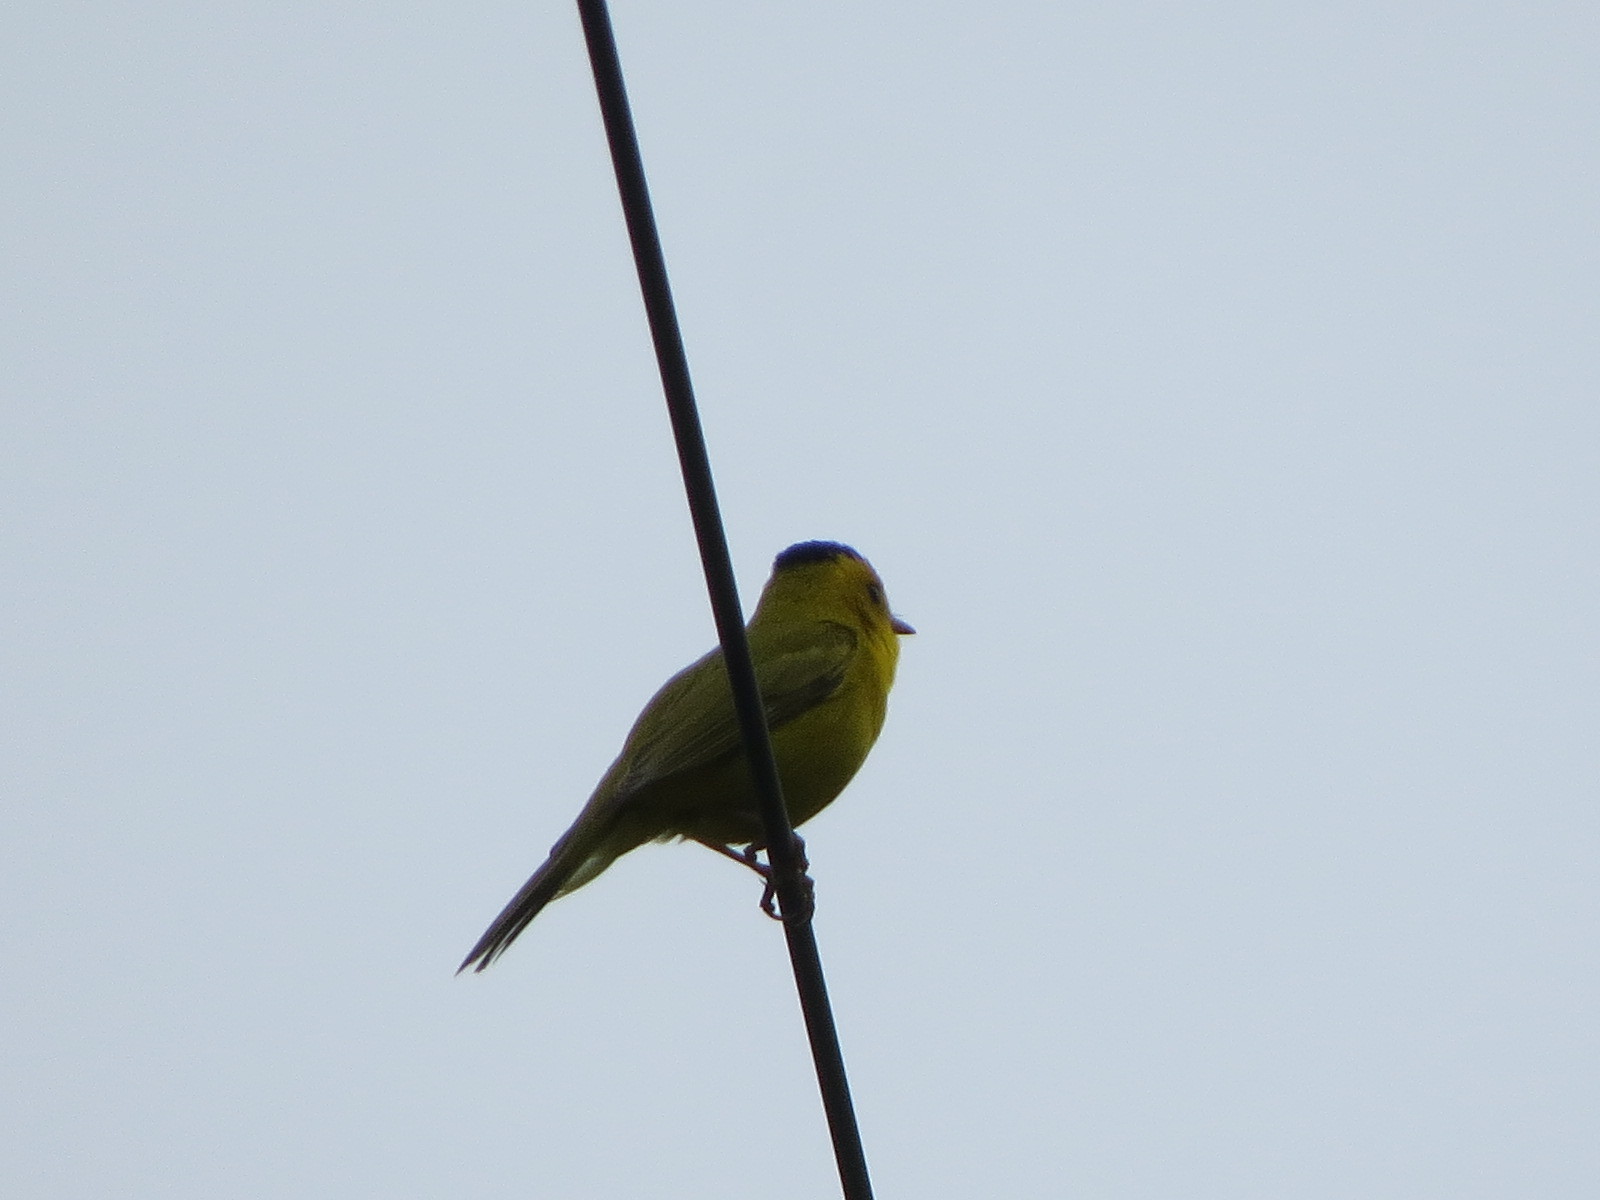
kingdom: Animalia
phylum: Chordata
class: Aves
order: Passeriformes
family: Parulidae
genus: Cardellina
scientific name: Cardellina pusilla
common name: Wilson's warbler
